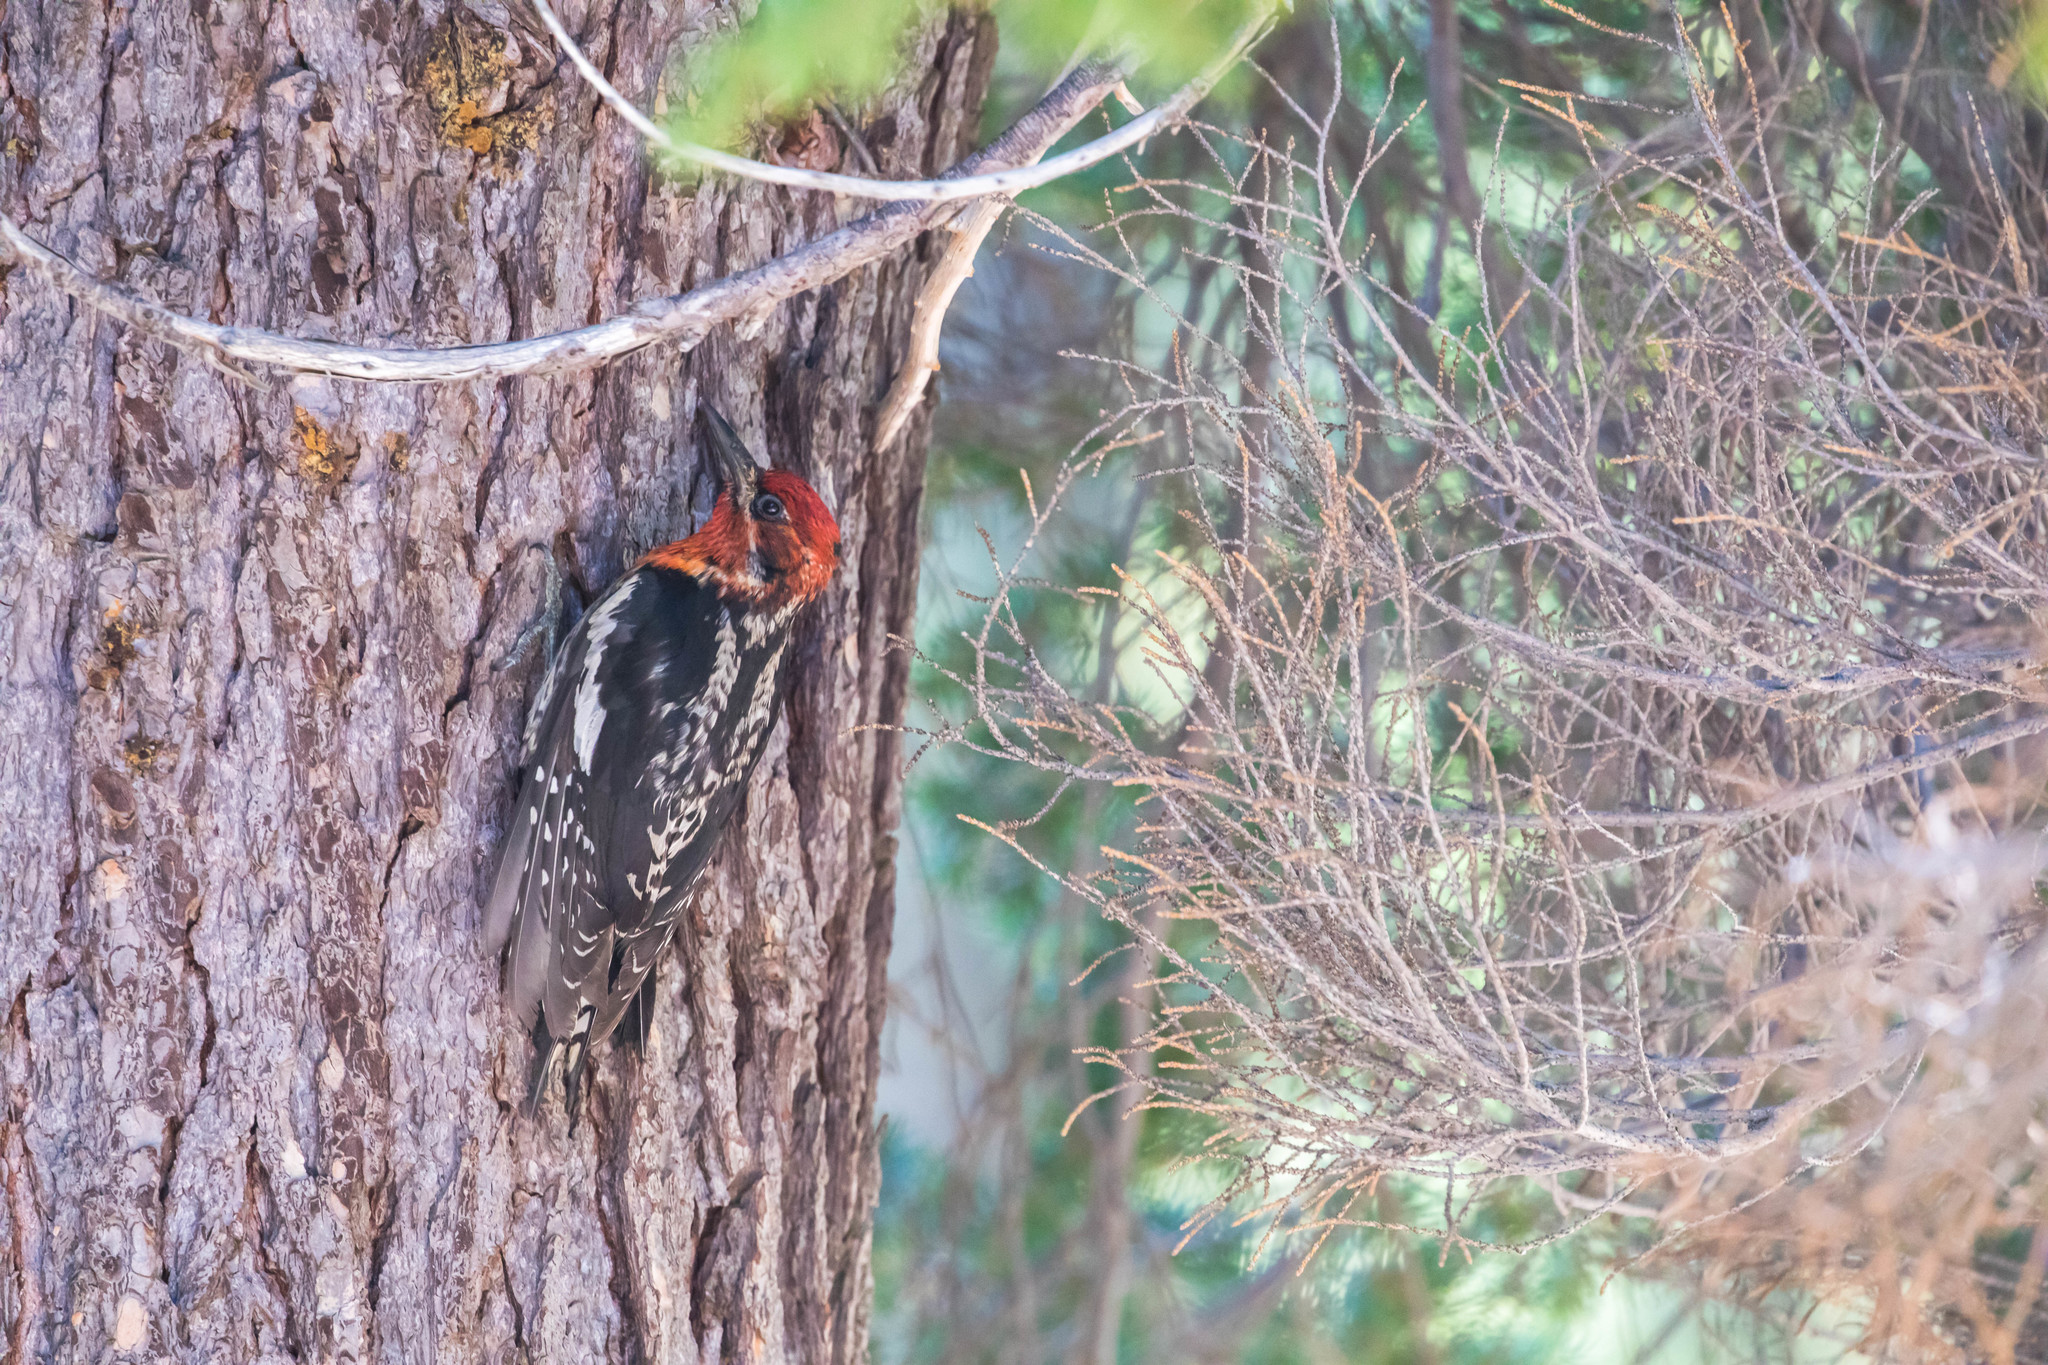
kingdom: Animalia
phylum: Chordata
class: Aves
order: Piciformes
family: Picidae
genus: Sphyrapicus
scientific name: Sphyrapicus ruber
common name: Red-breasted sapsucker
